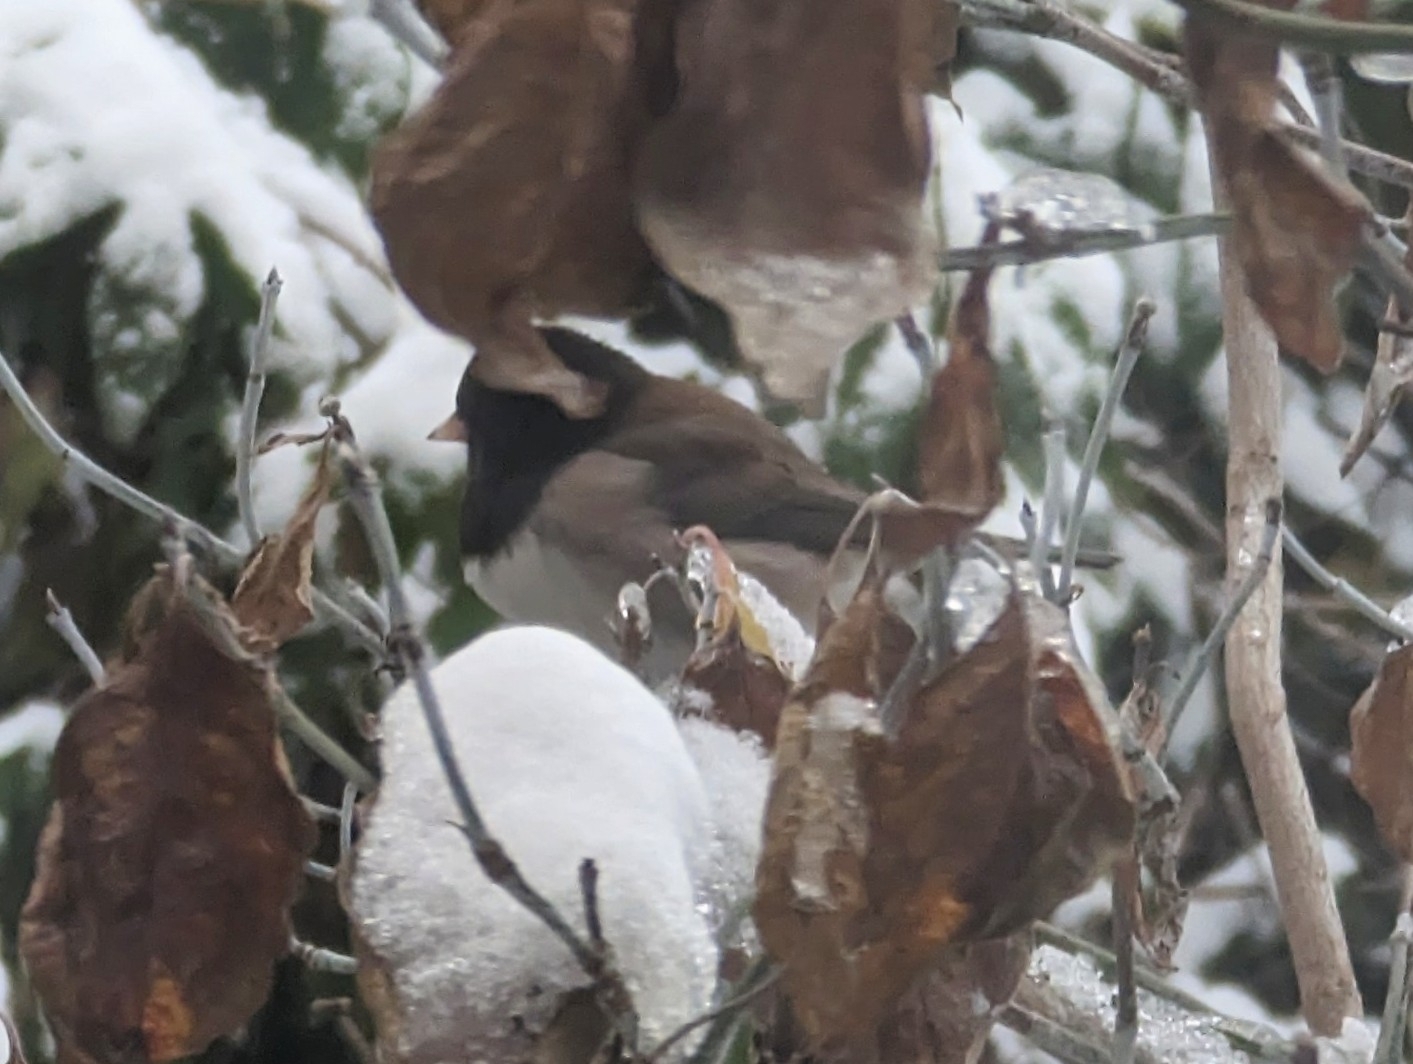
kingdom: Animalia
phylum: Chordata
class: Aves
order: Passeriformes
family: Passerellidae
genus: Junco
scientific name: Junco hyemalis
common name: Dark-eyed junco
